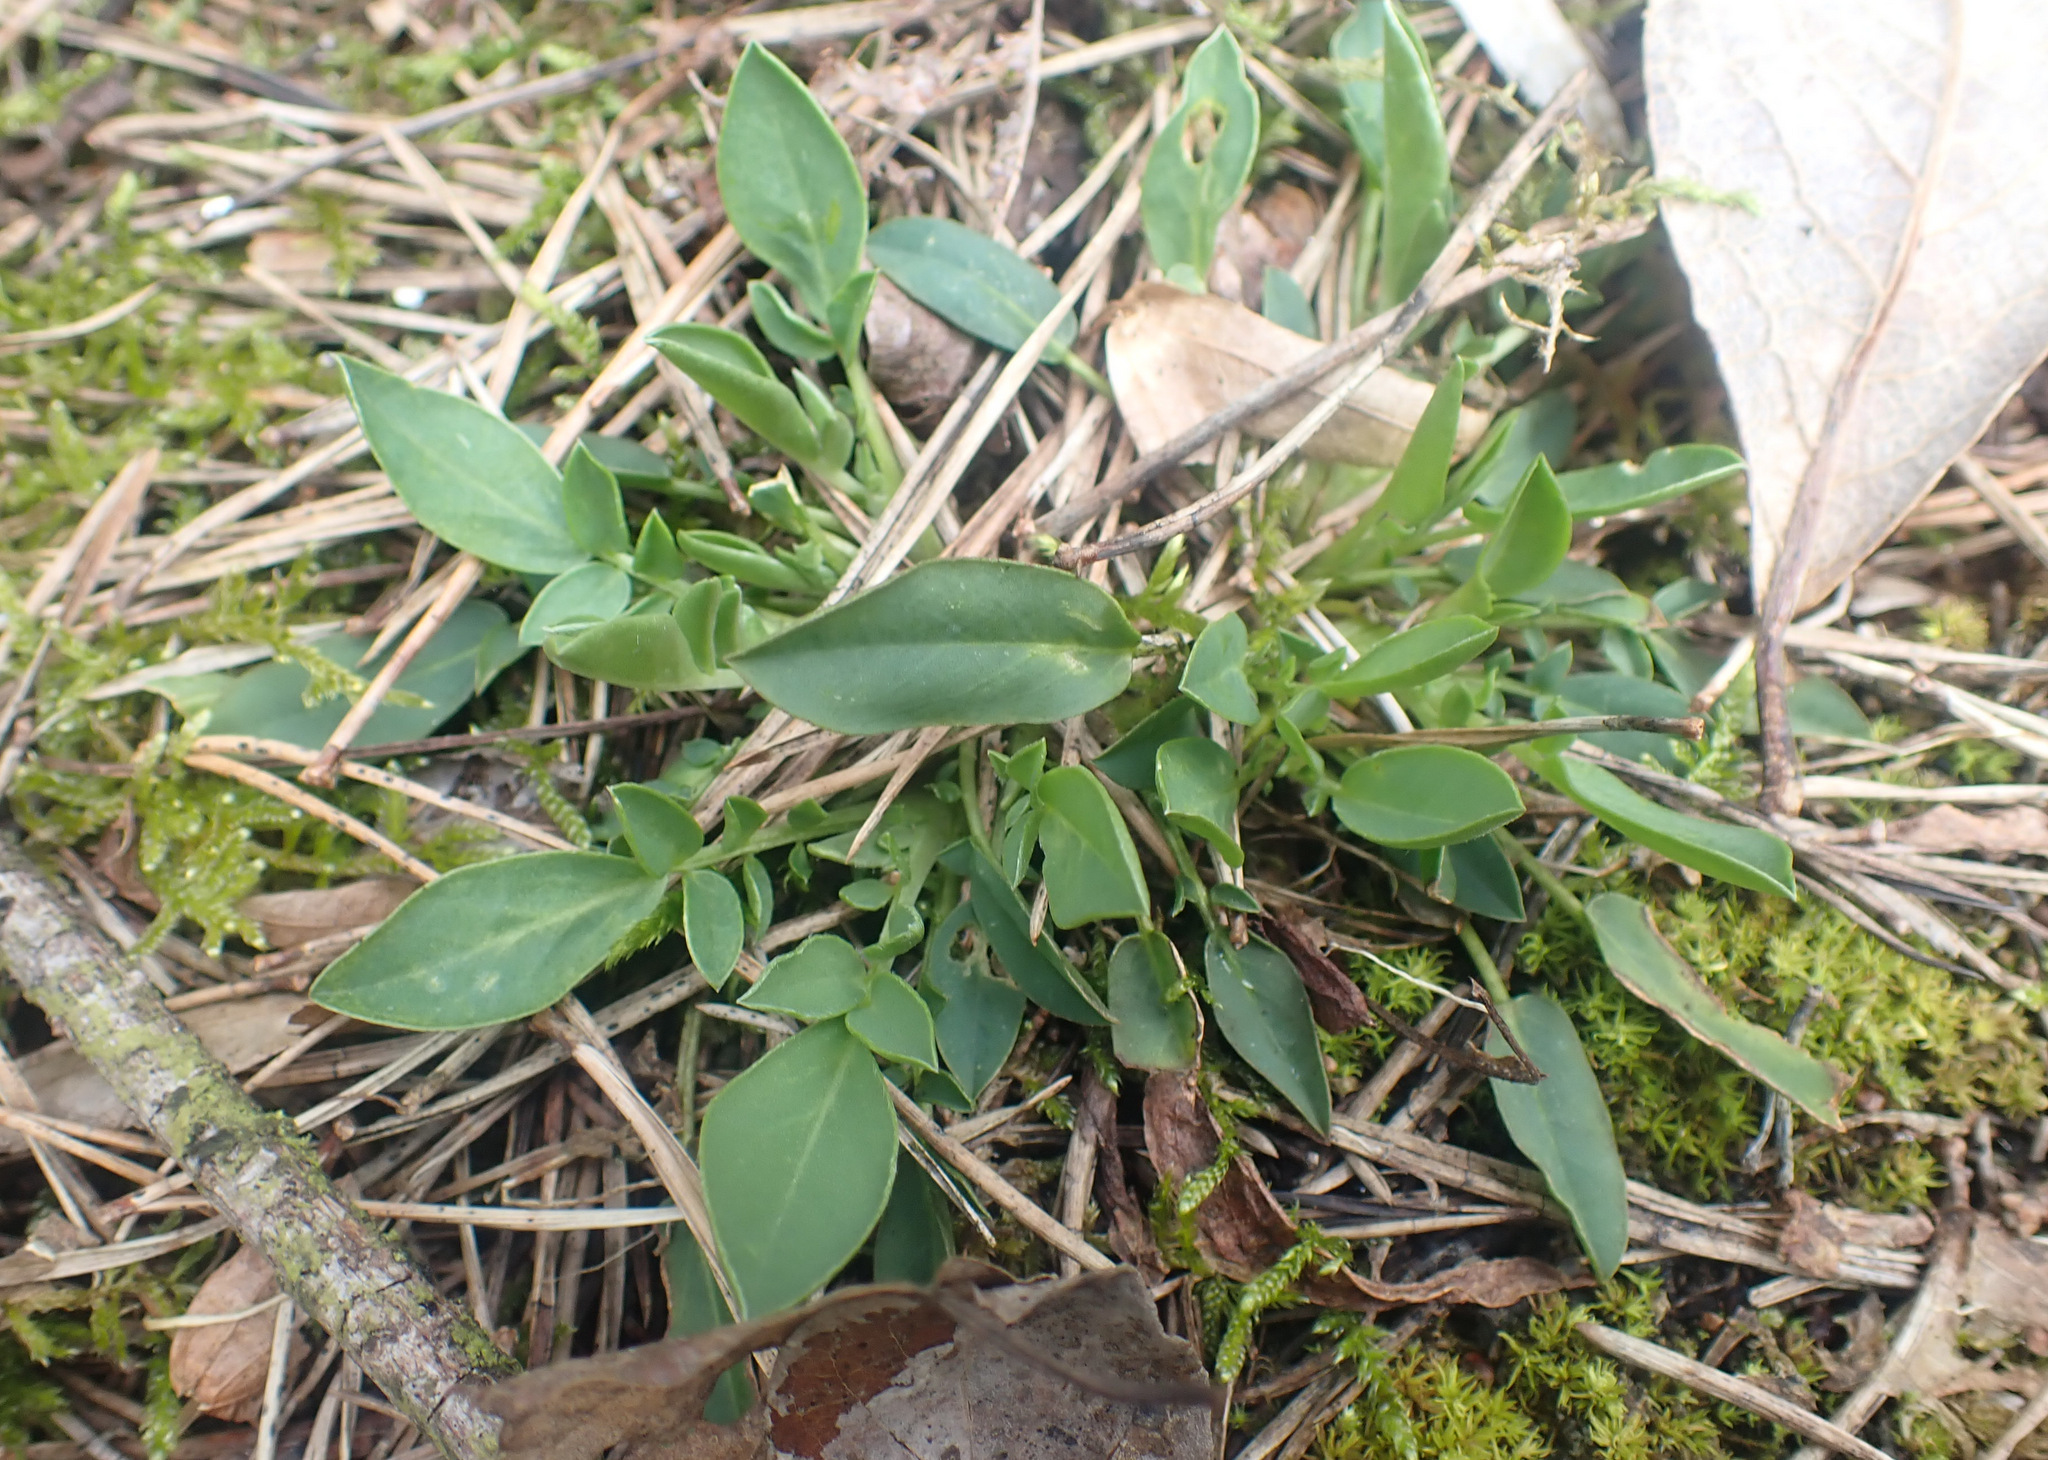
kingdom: Plantae
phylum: Tracheophyta
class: Magnoliopsida
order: Fabales
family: Fabaceae
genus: Anthyllis
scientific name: Anthyllis vulneraria
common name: Kidney vetch
